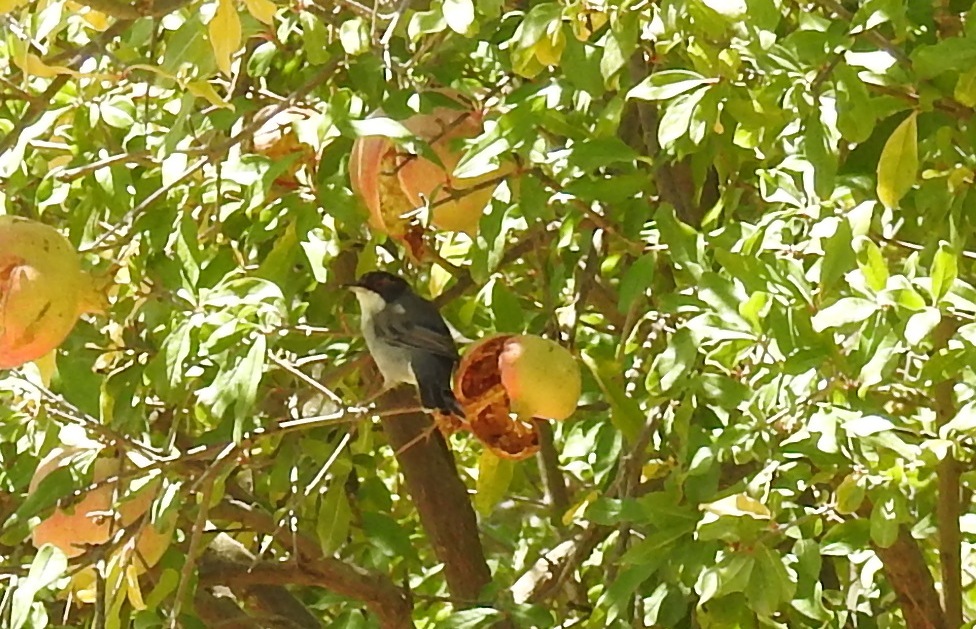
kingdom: Animalia
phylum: Chordata
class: Aves
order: Passeriformes
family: Sylviidae
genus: Curruca
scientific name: Curruca melanocephala
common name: Sardinian warbler
